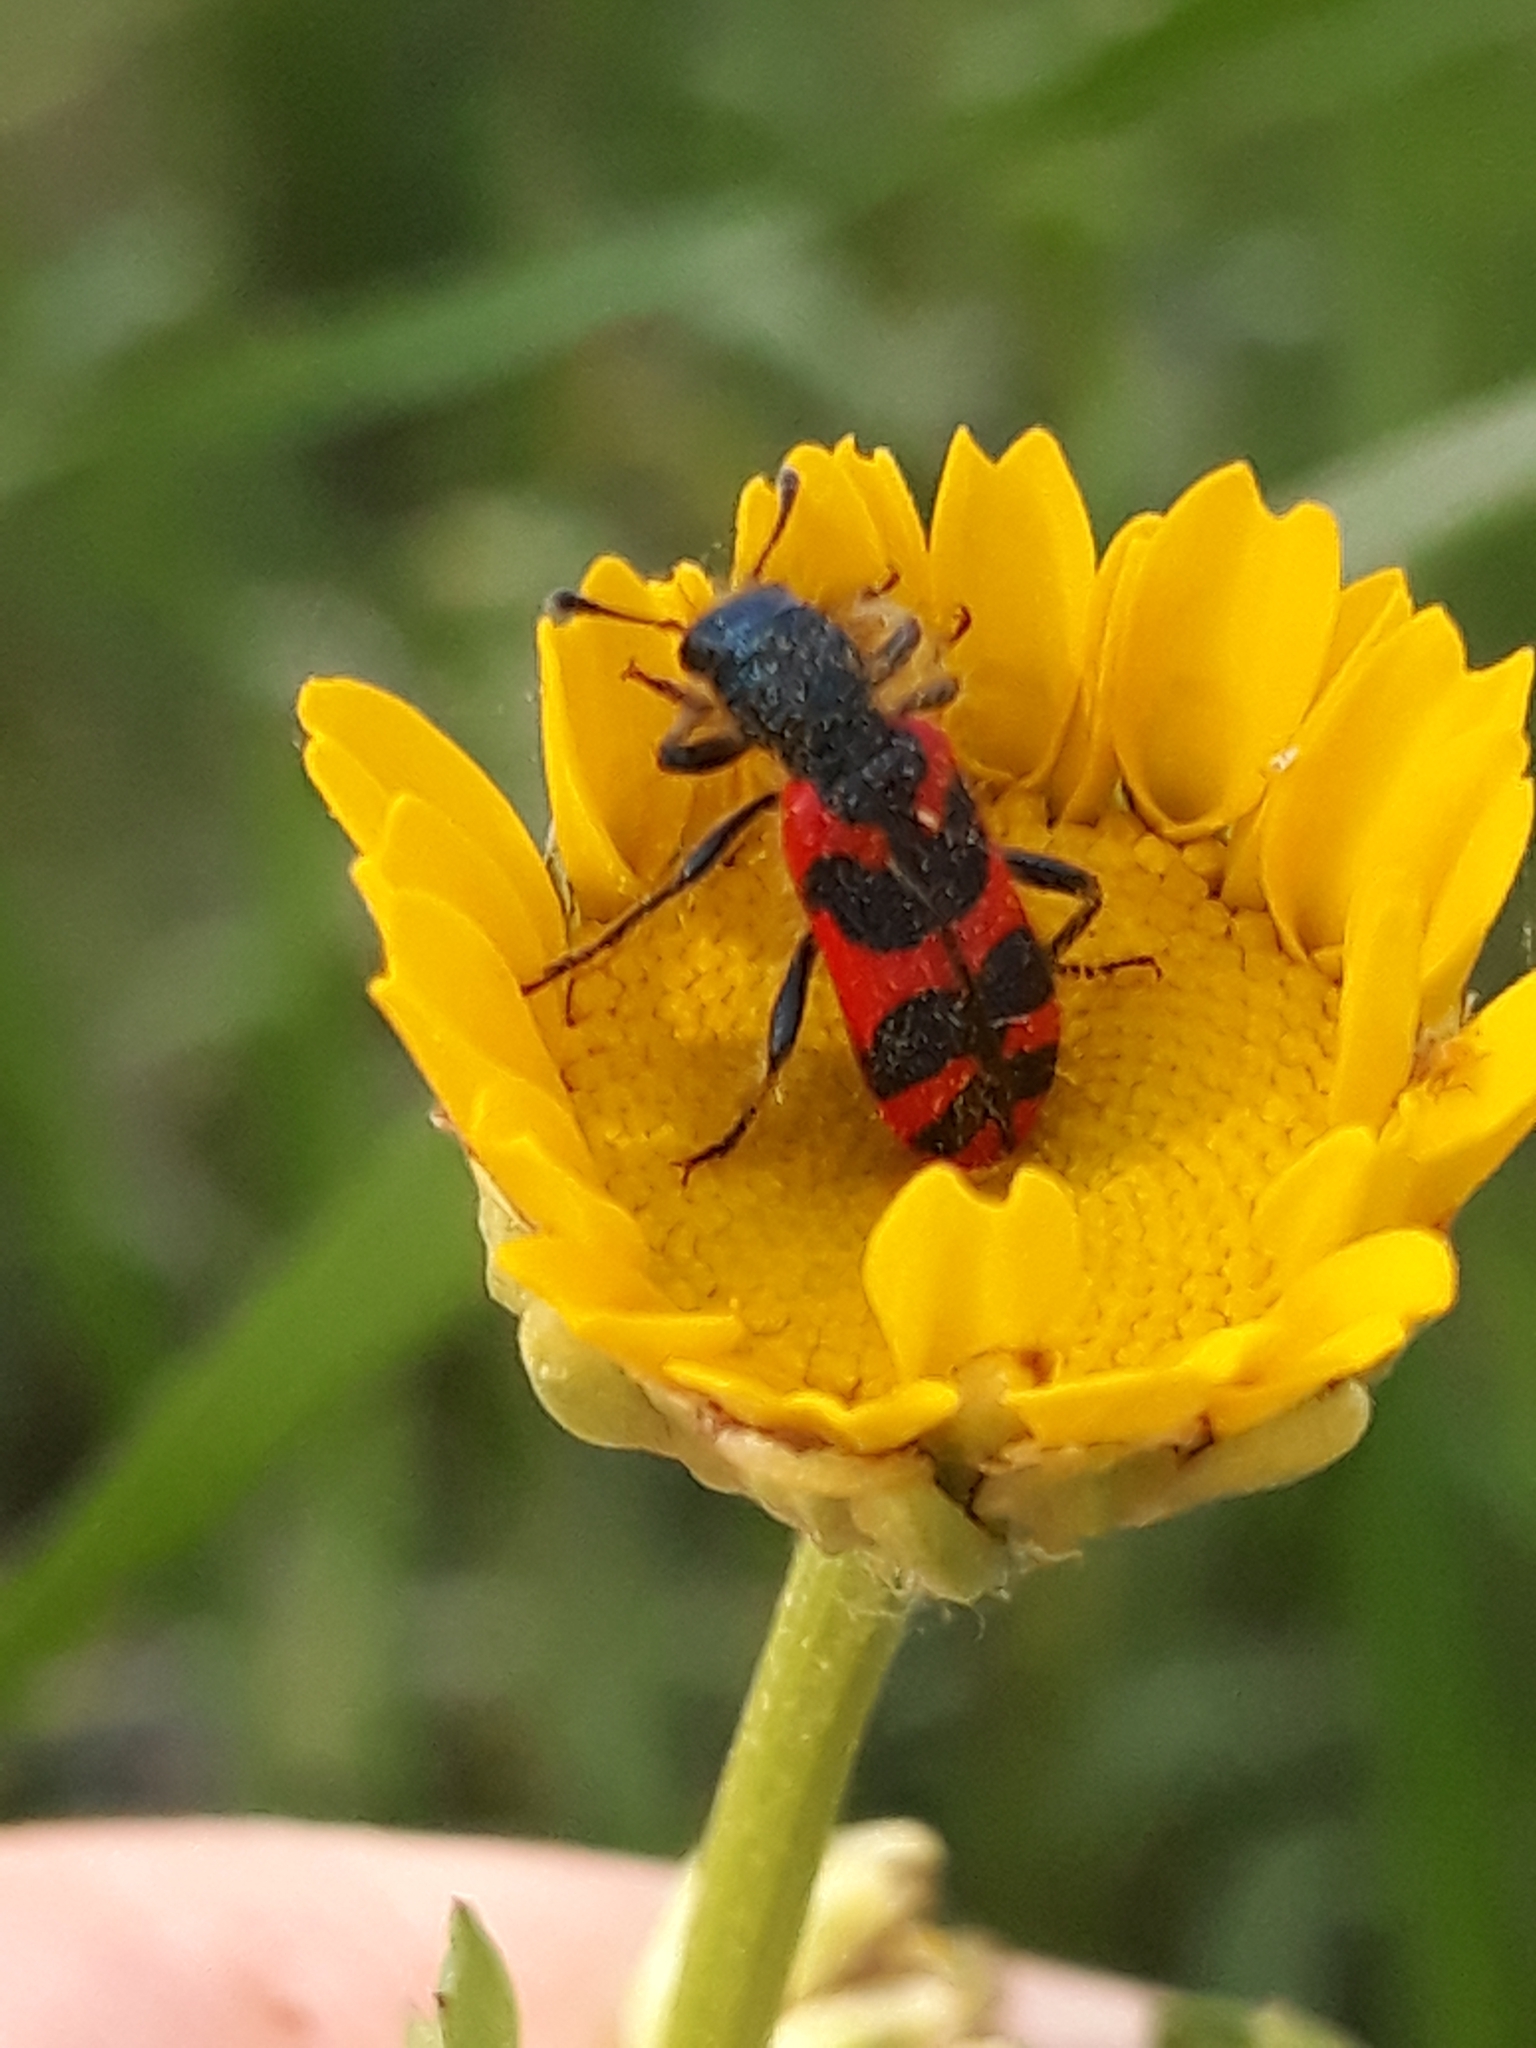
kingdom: Animalia
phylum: Arthropoda
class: Insecta
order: Coleoptera
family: Cleridae
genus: Trichodes
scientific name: Trichodes umbellatarum
